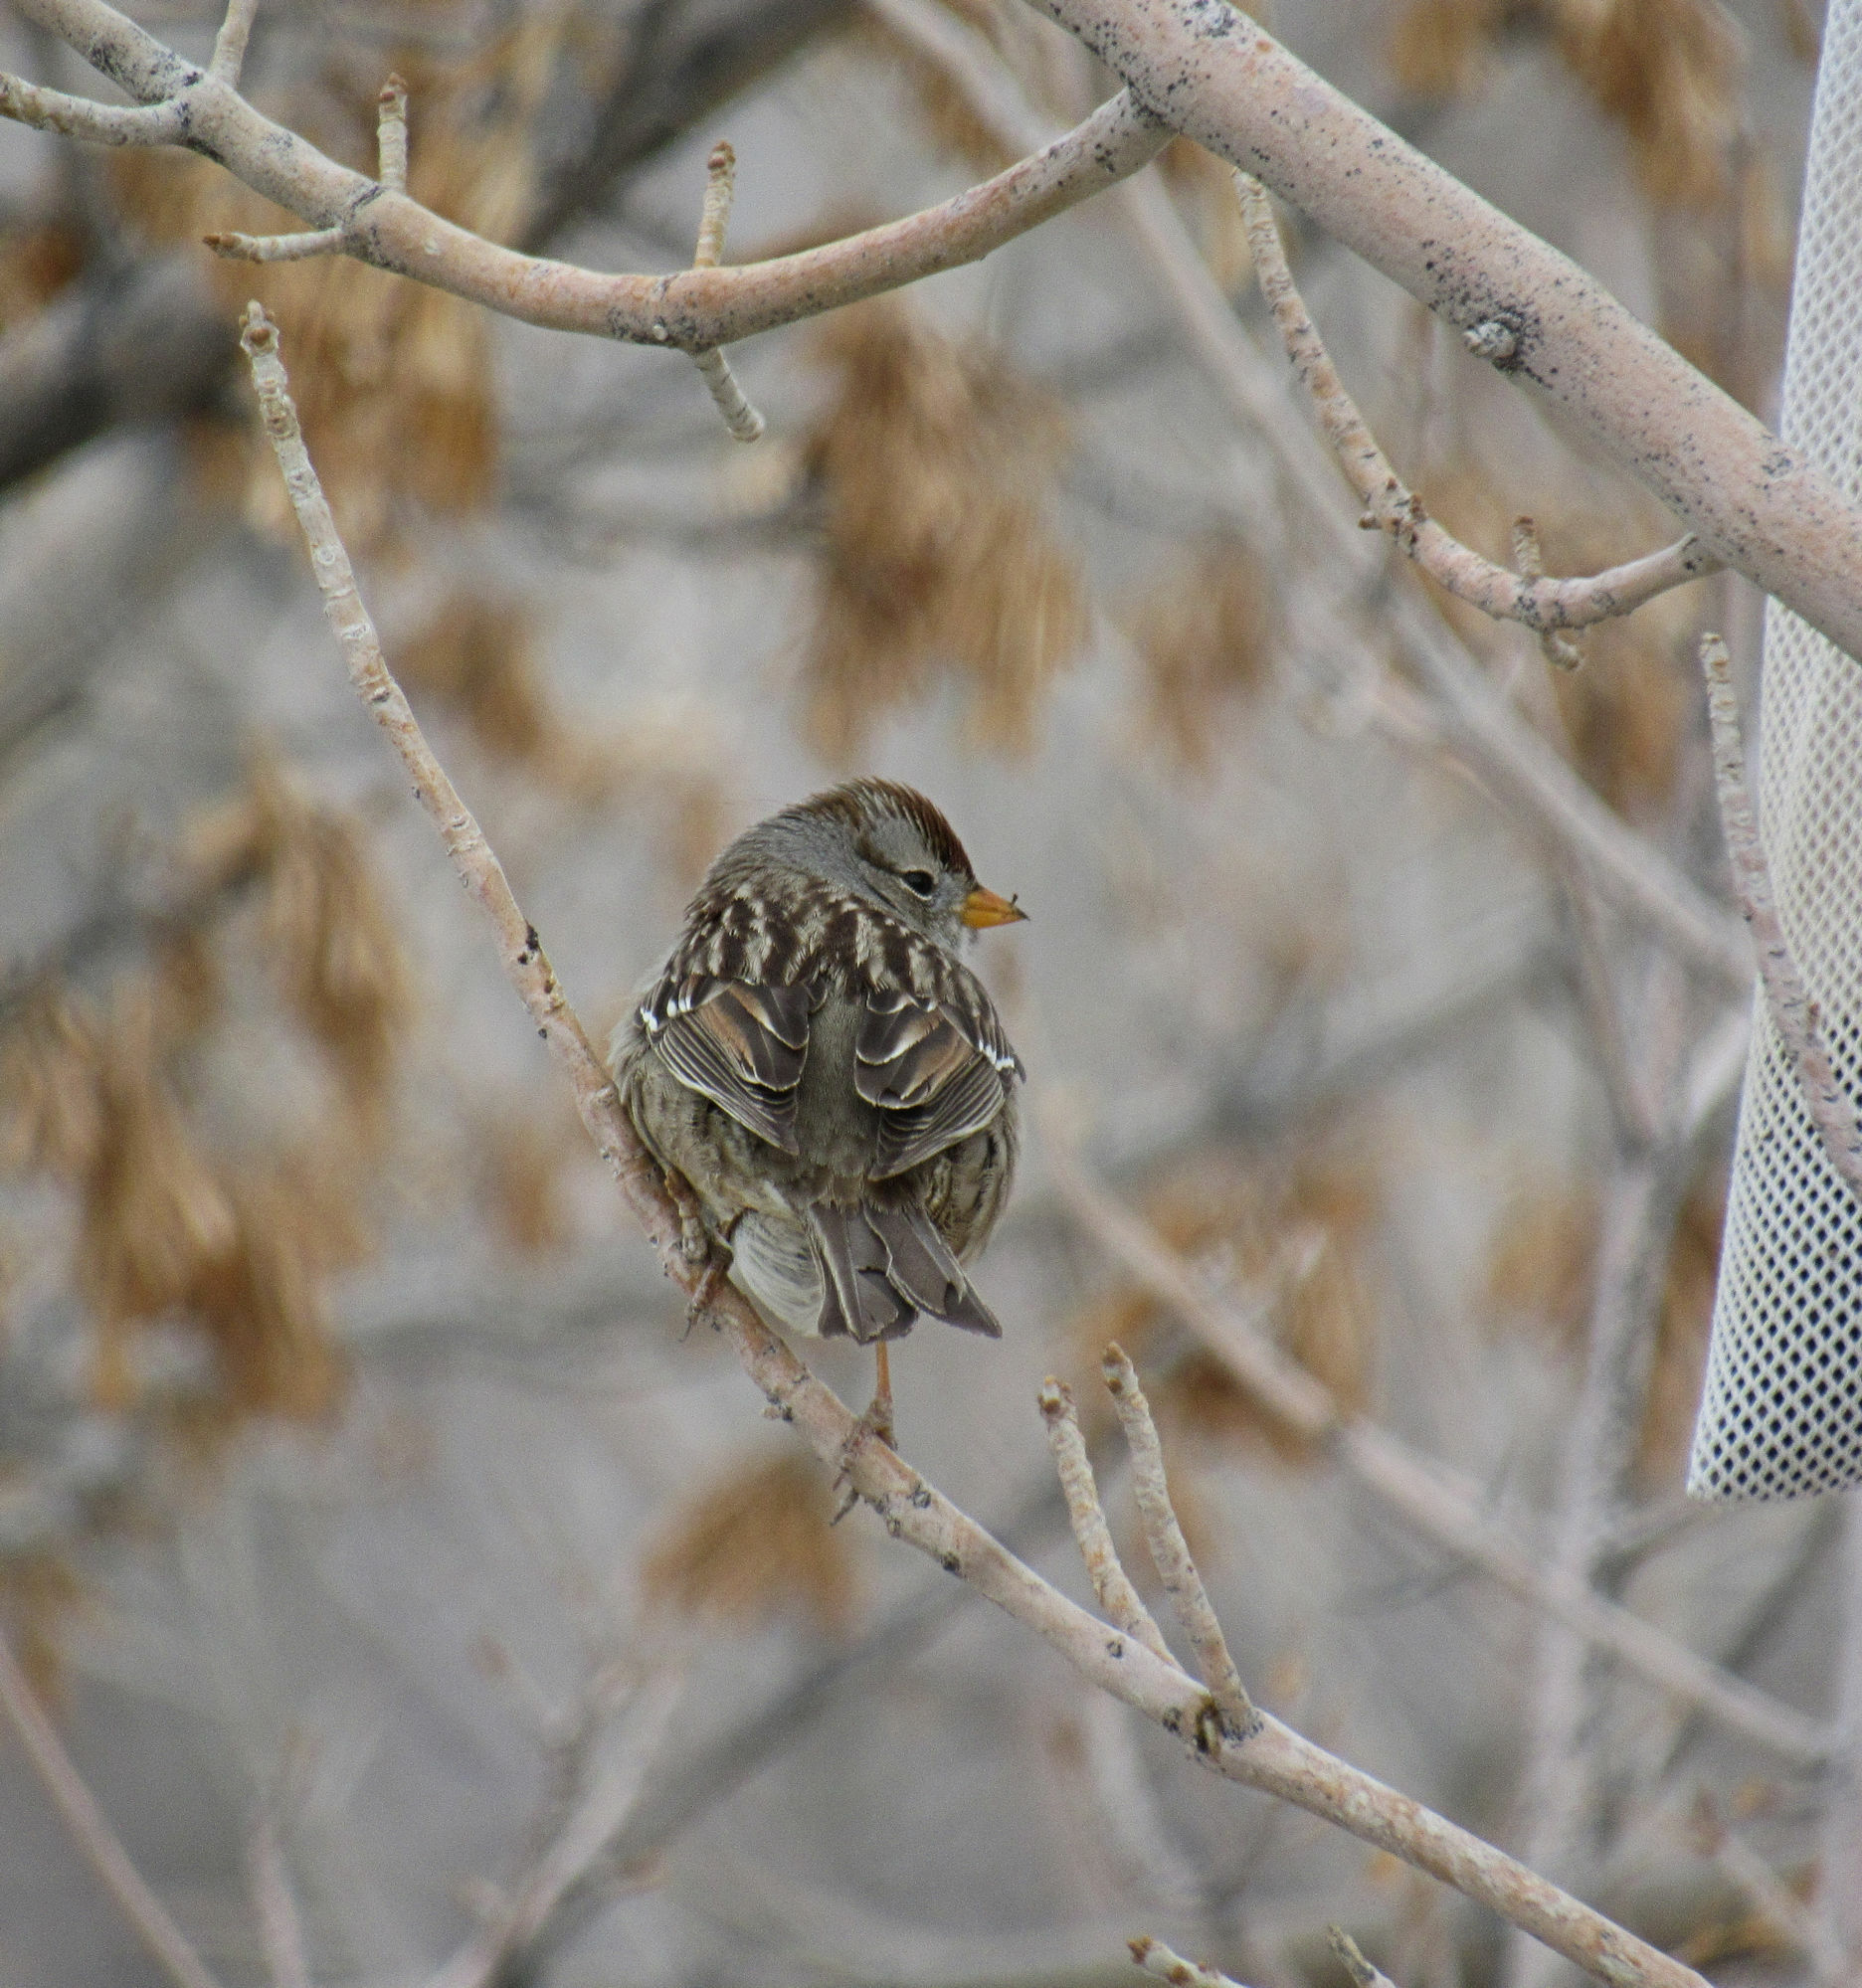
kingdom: Animalia
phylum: Chordata
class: Aves
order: Passeriformes
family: Passerellidae
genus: Zonotrichia
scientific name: Zonotrichia leucophrys
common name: White-crowned sparrow
